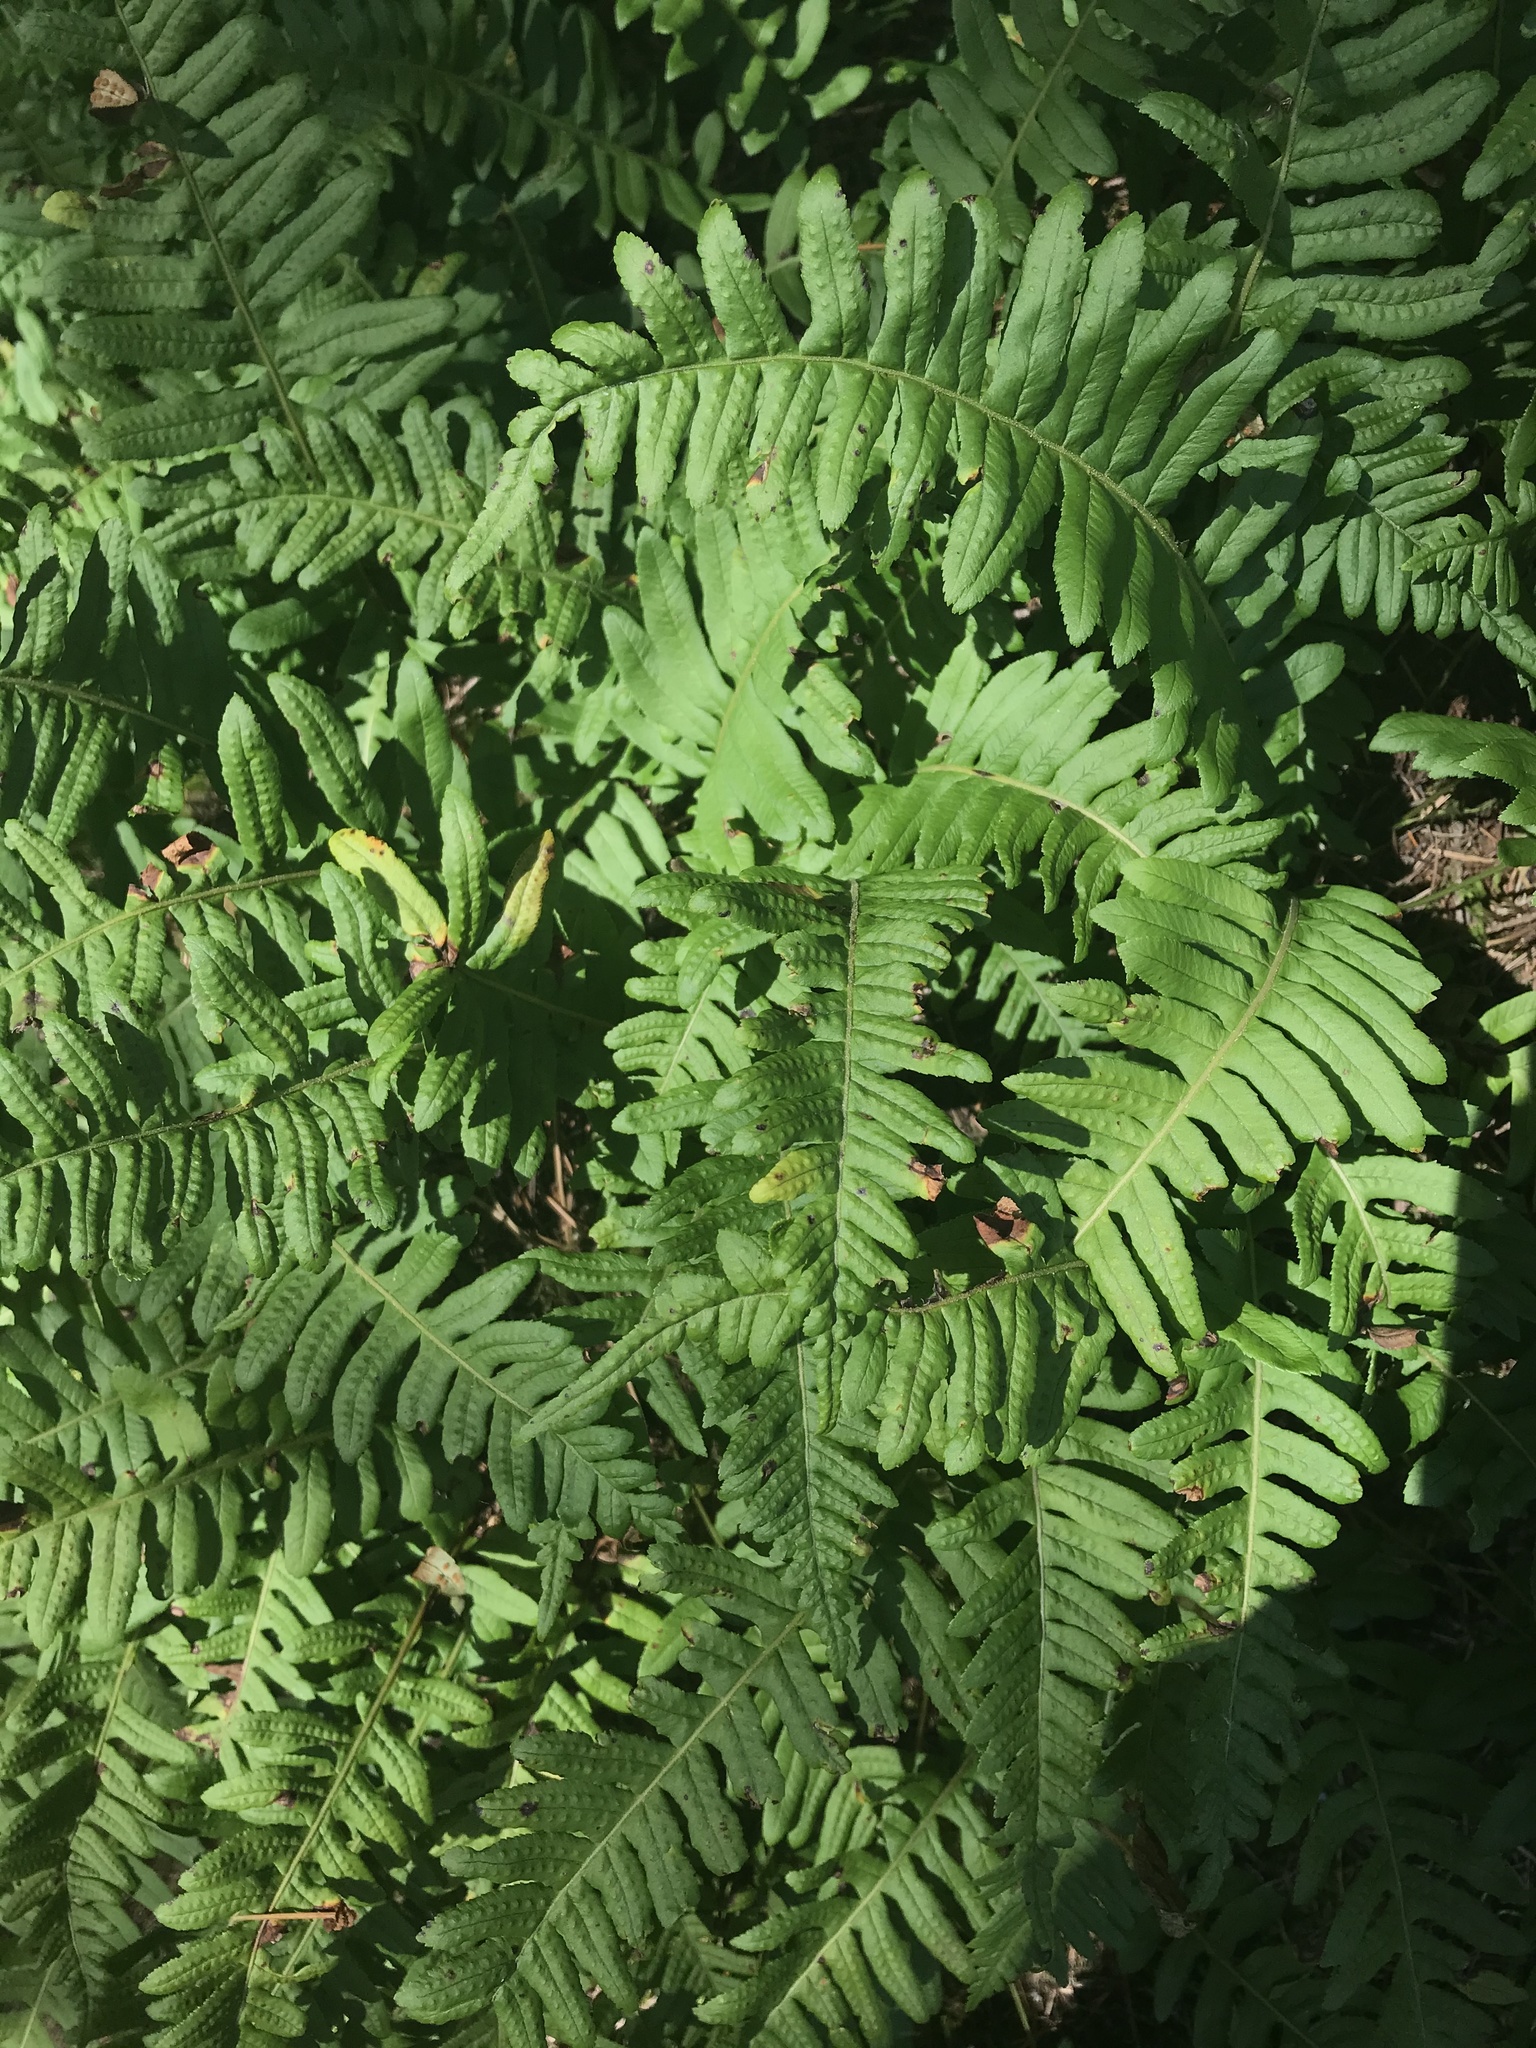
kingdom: Plantae
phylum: Tracheophyta
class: Polypodiopsida
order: Polypodiales
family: Polypodiaceae
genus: Polypodium
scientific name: Polypodium glycyrrhiza
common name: Licorice fern
